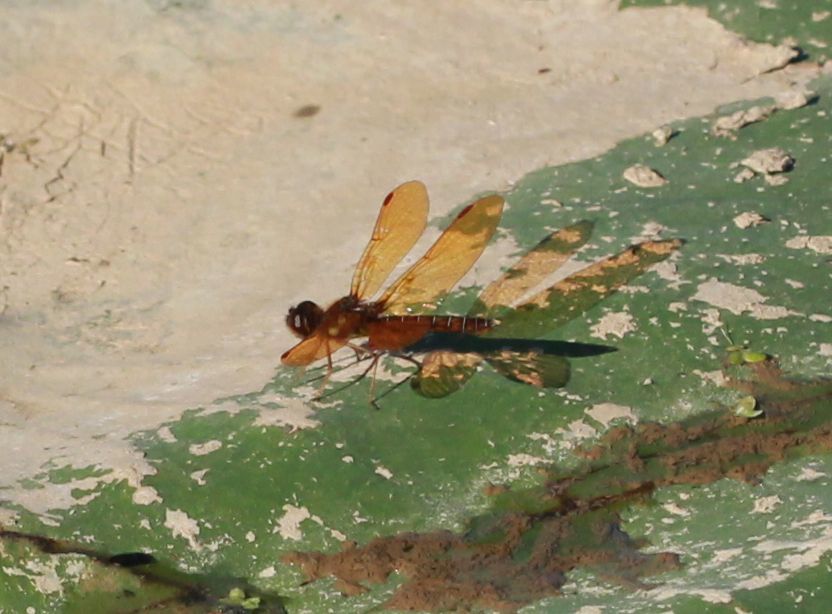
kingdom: Animalia
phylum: Arthropoda
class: Insecta
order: Odonata
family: Libellulidae
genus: Perithemis
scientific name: Perithemis tenera
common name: Eastern amberwing
